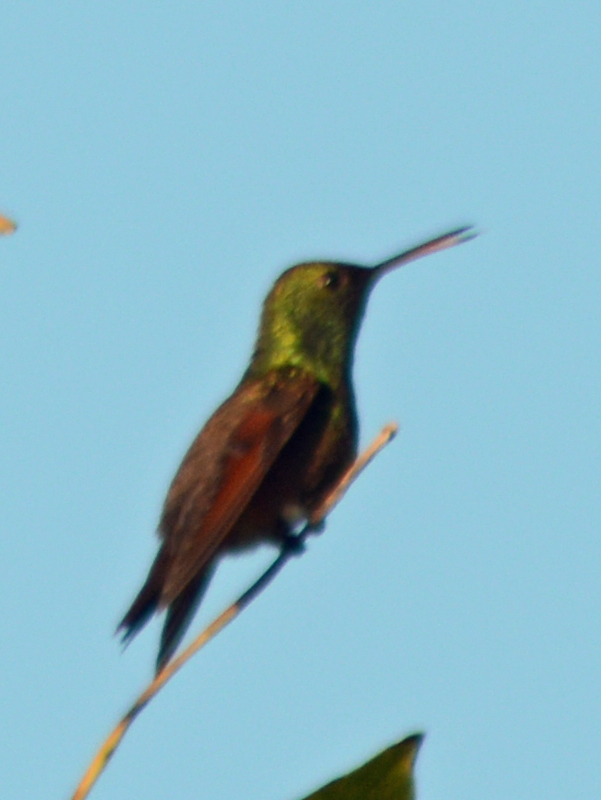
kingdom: Animalia
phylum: Chordata
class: Aves
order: Apodiformes
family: Trochilidae
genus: Saucerottia
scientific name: Saucerottia beryllina
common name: Berylline hummingbird
